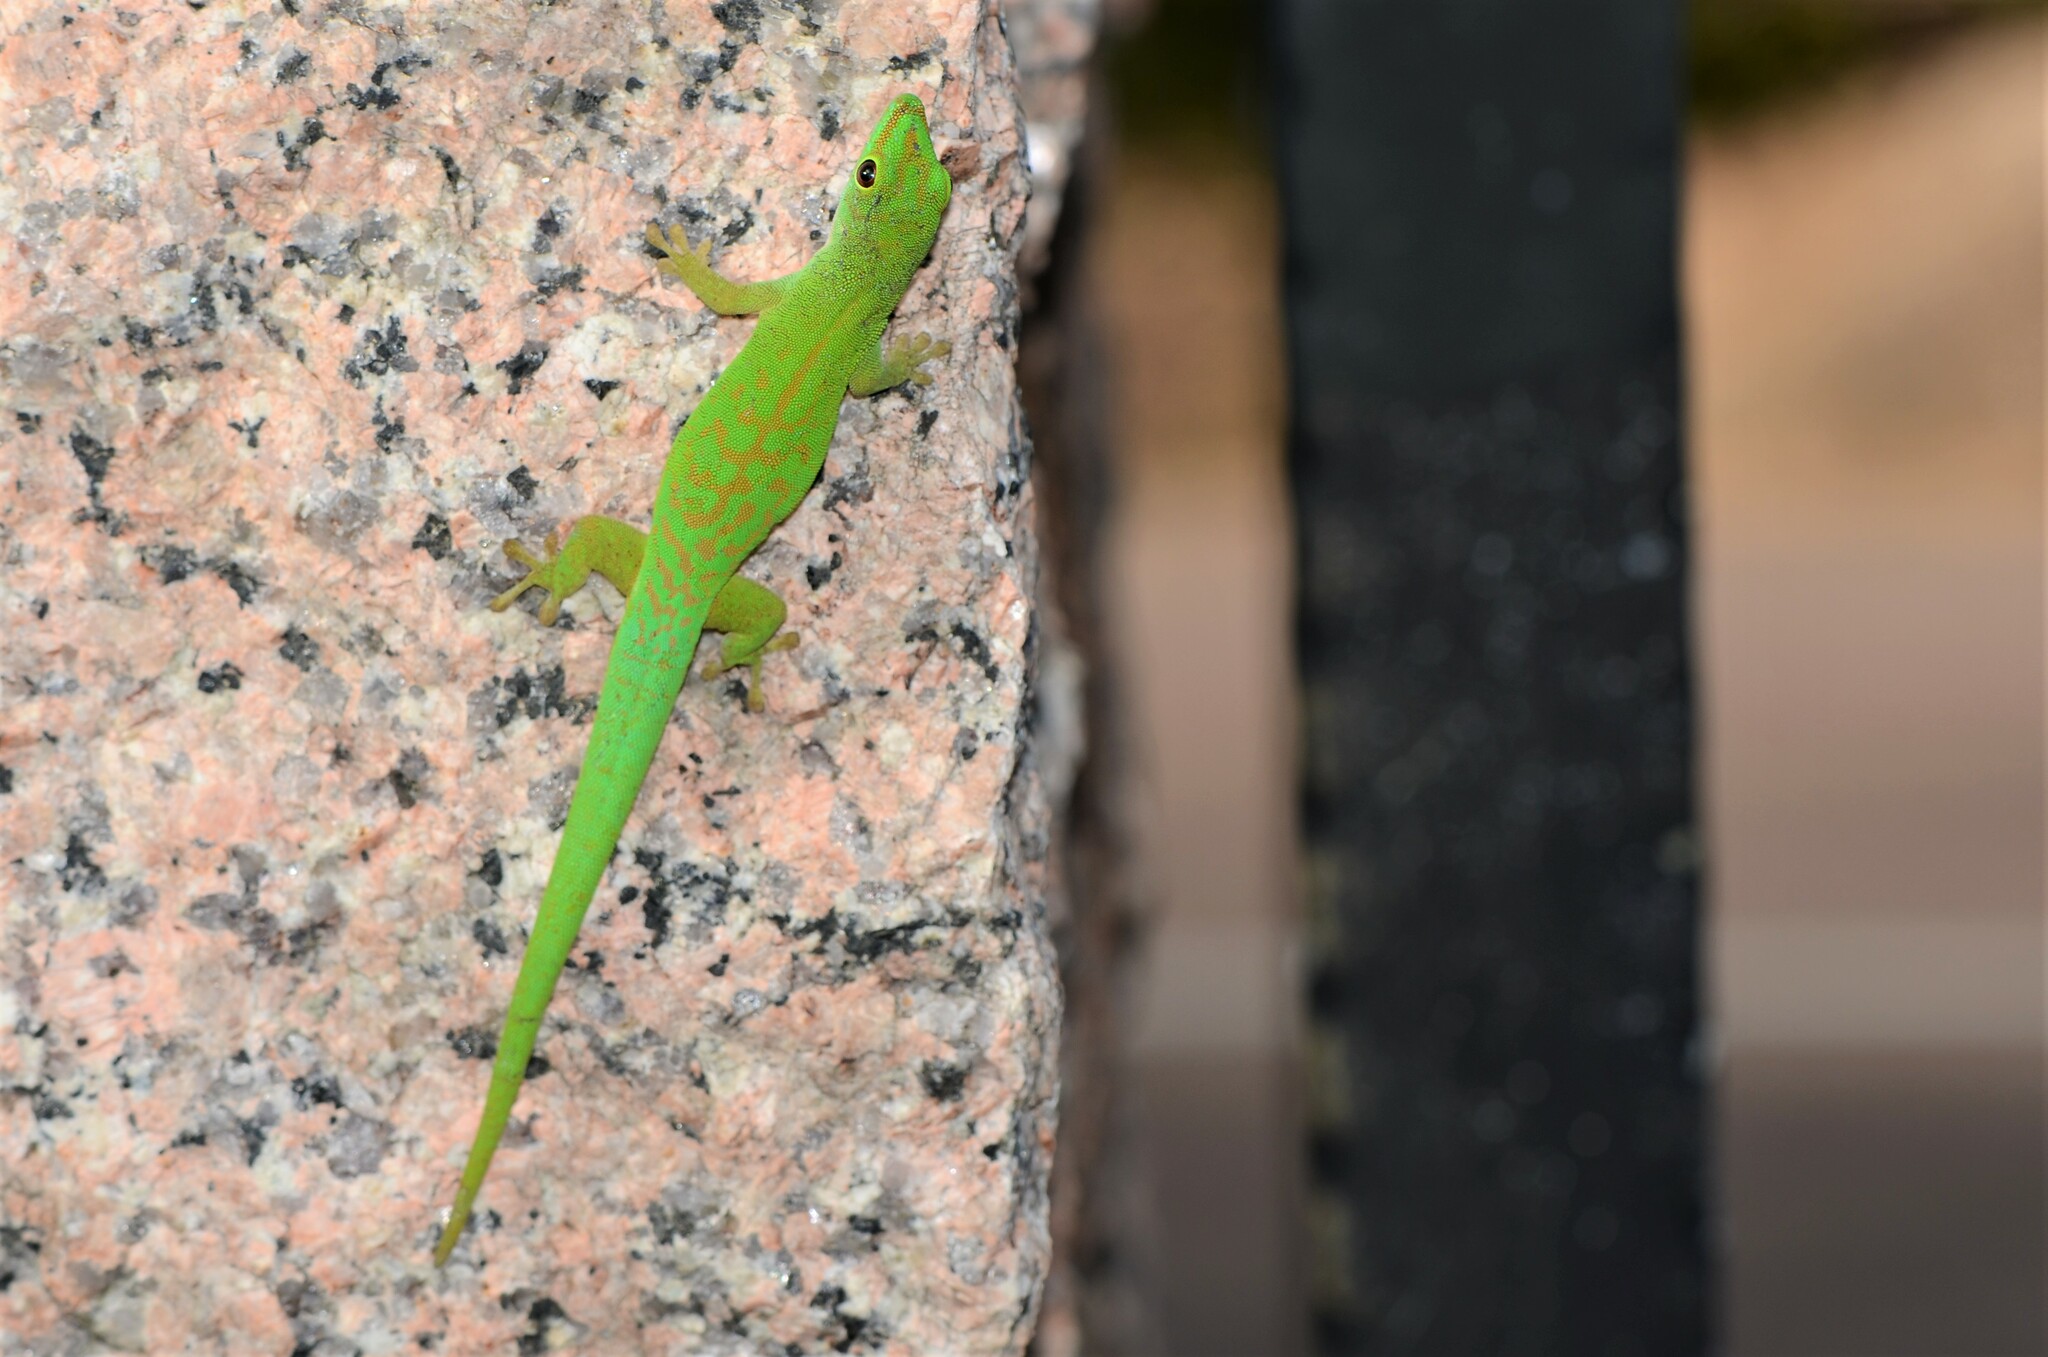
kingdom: Animalia
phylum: Chordata
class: Squamata
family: Gekkonidae
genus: Phelsuma
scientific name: Phelsuma astriata
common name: Seychelles day gecko
